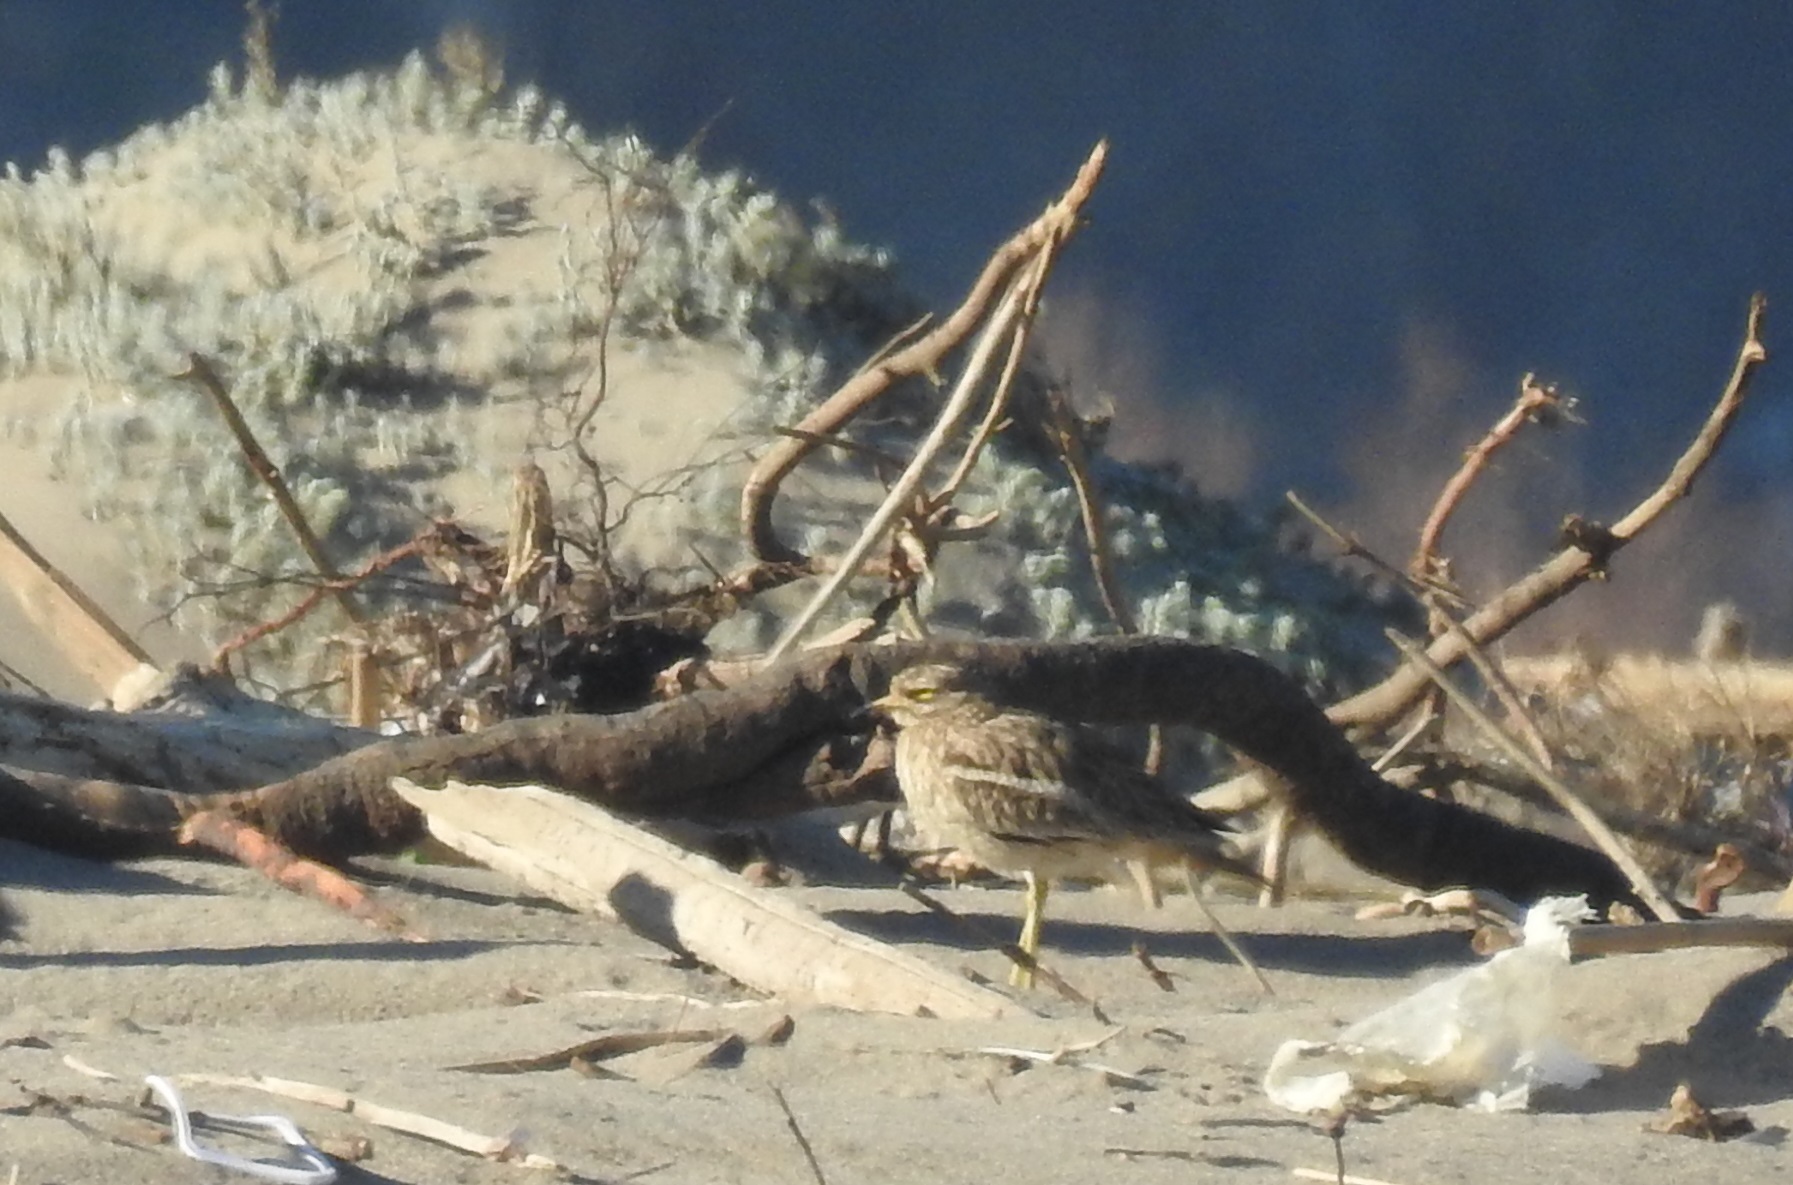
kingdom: Animalia
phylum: Chordata
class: Aves
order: Charadriiformes
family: Burhinidae
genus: Burhinus
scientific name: Burhinus oedicnemus
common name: Eurasian stone-curlew
